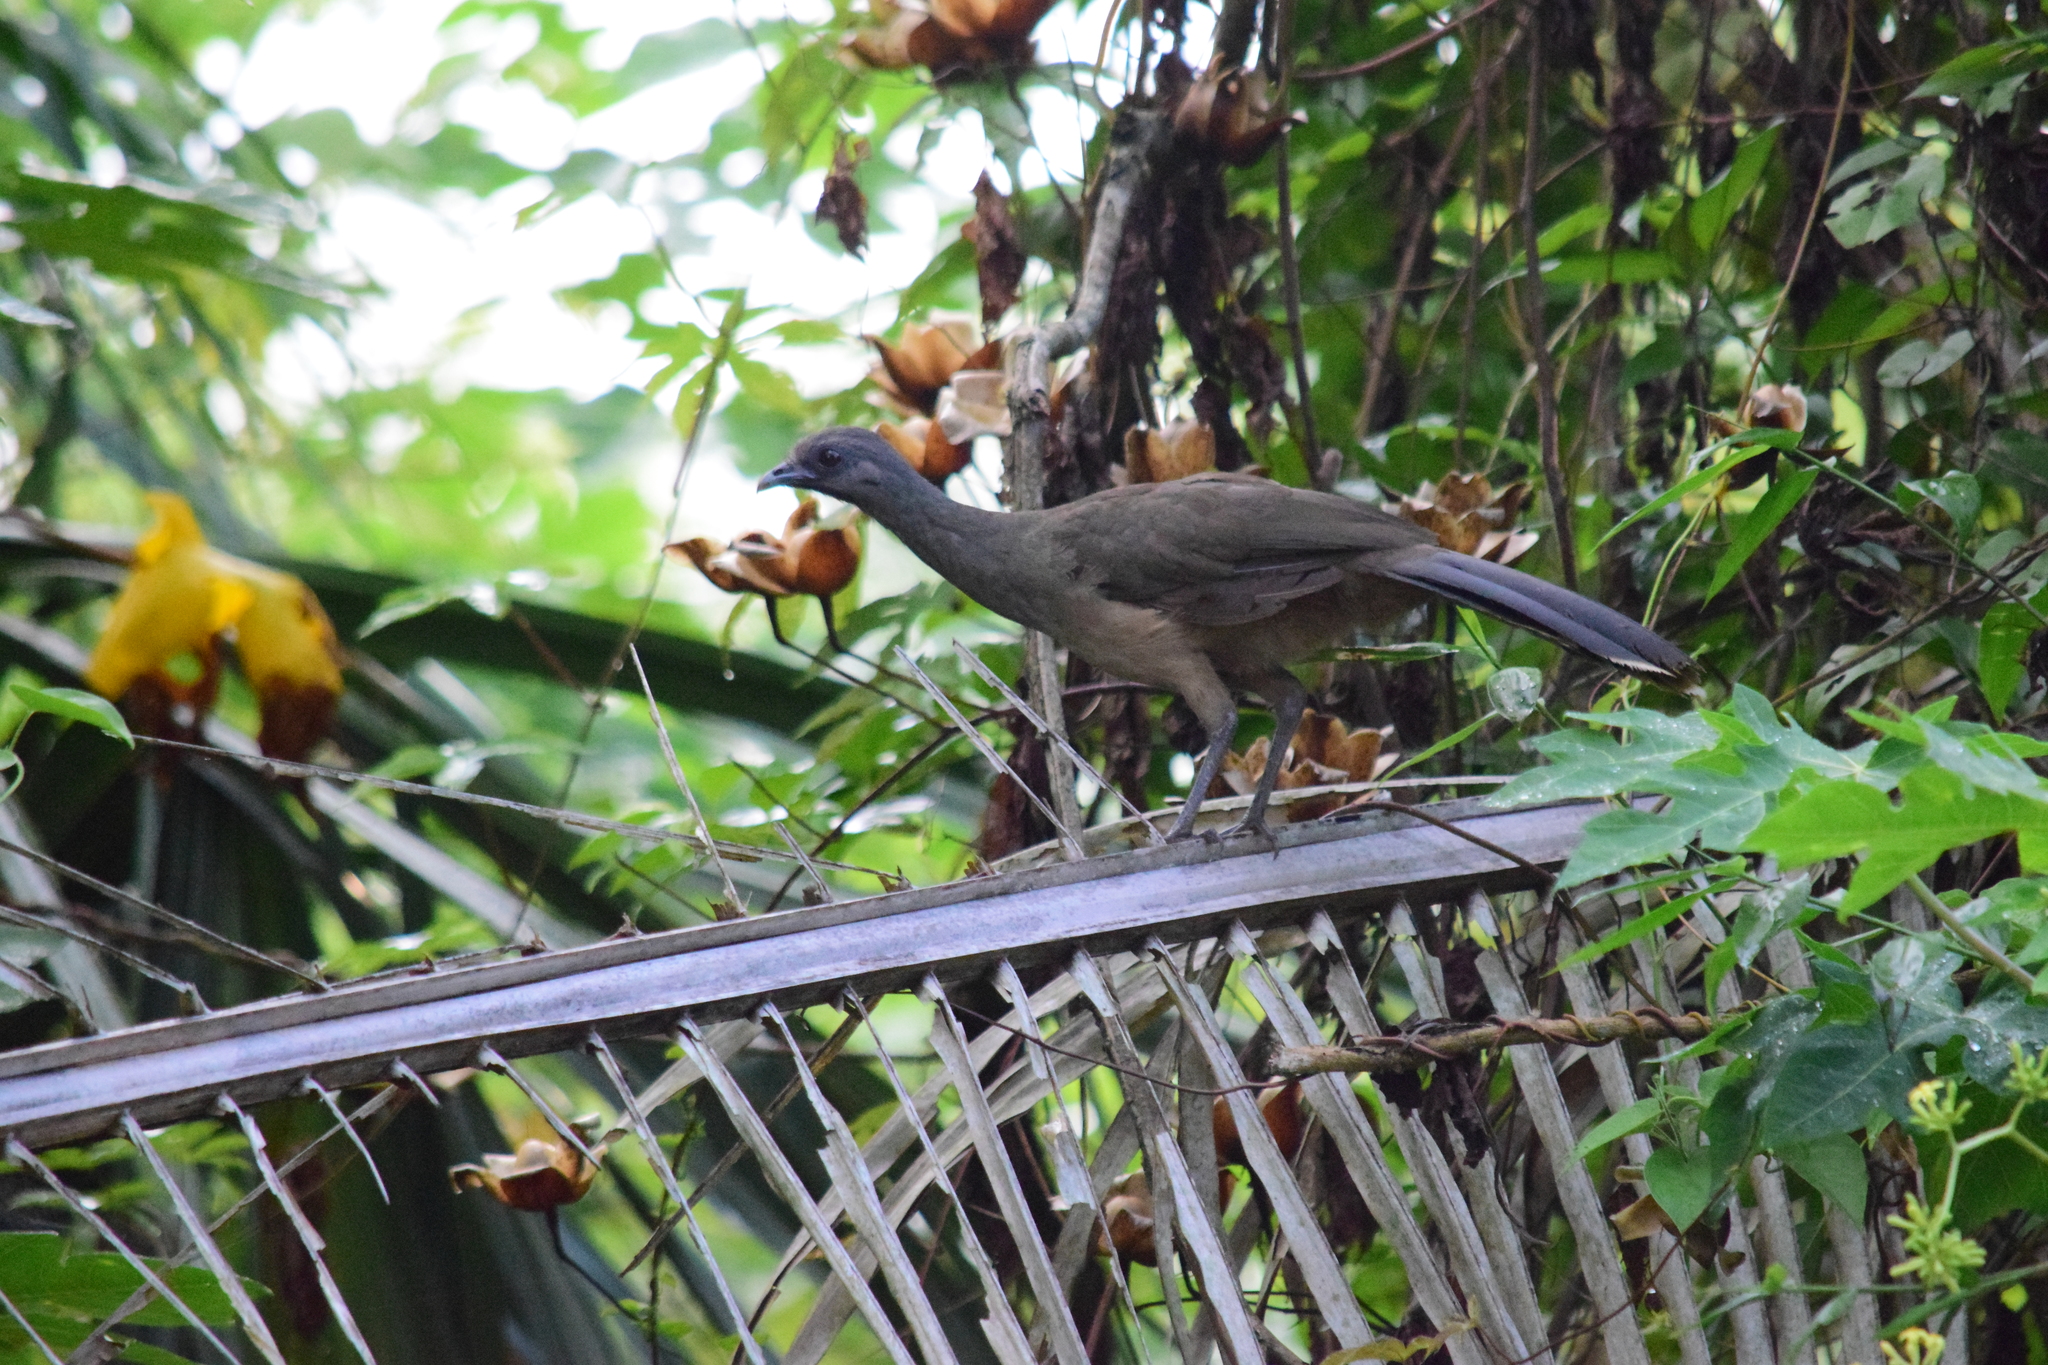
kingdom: Animalia
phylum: Chordata
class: Aves
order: Galliformes
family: Cracidae
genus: Ortalis
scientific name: Ortalis vetula
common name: Plain chachalaca
